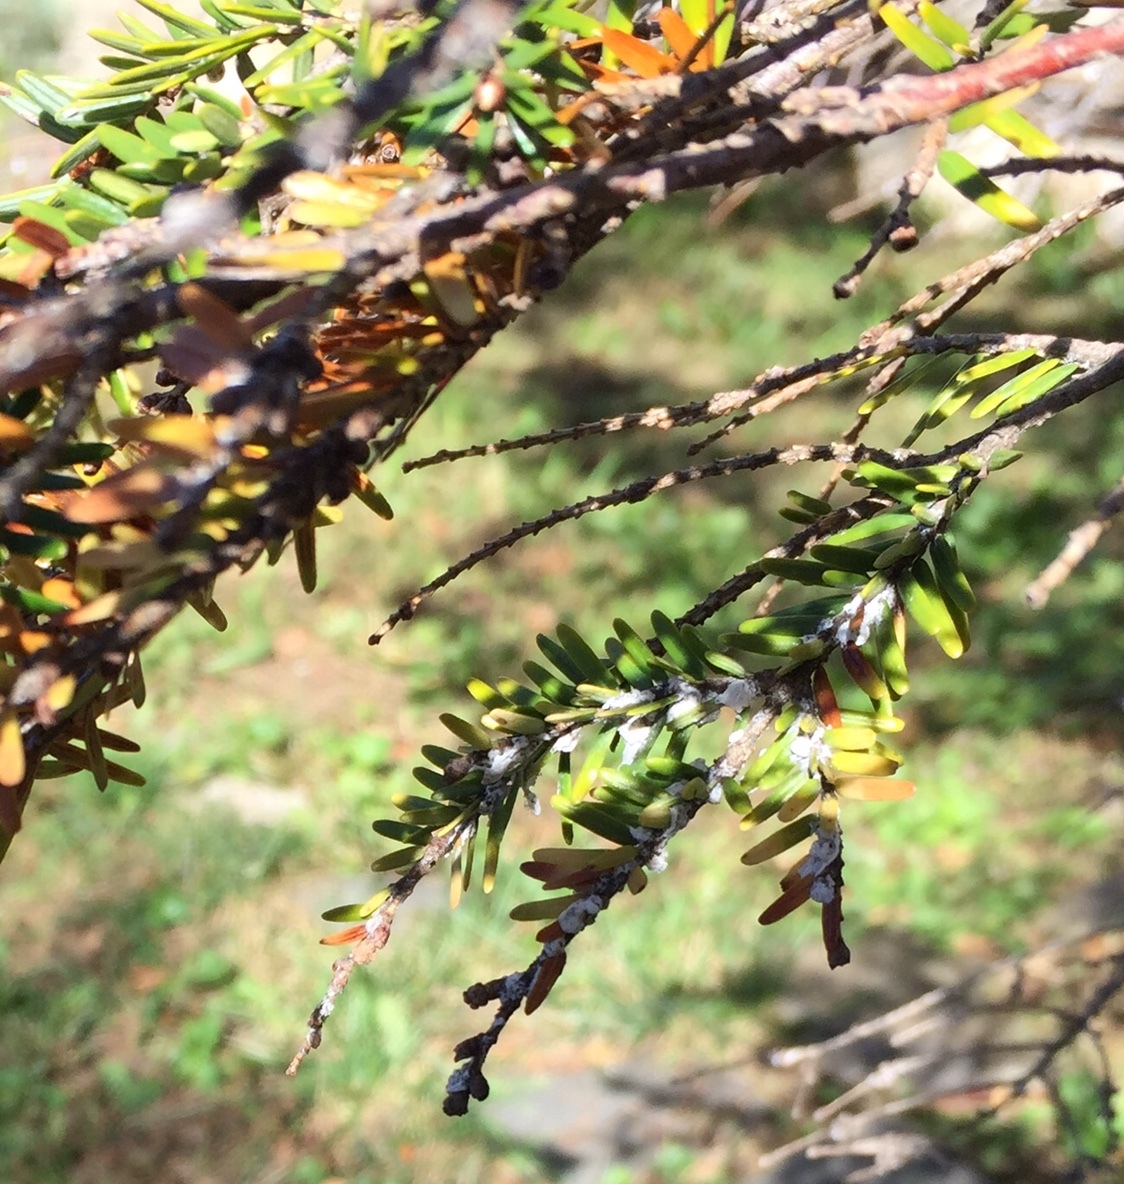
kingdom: Animalia
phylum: Arthropoda
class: Insecta
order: Hemiptera
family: Adelgidae
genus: Adelges
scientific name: Adelges tsugae
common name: Hemlock woolly adelgid
